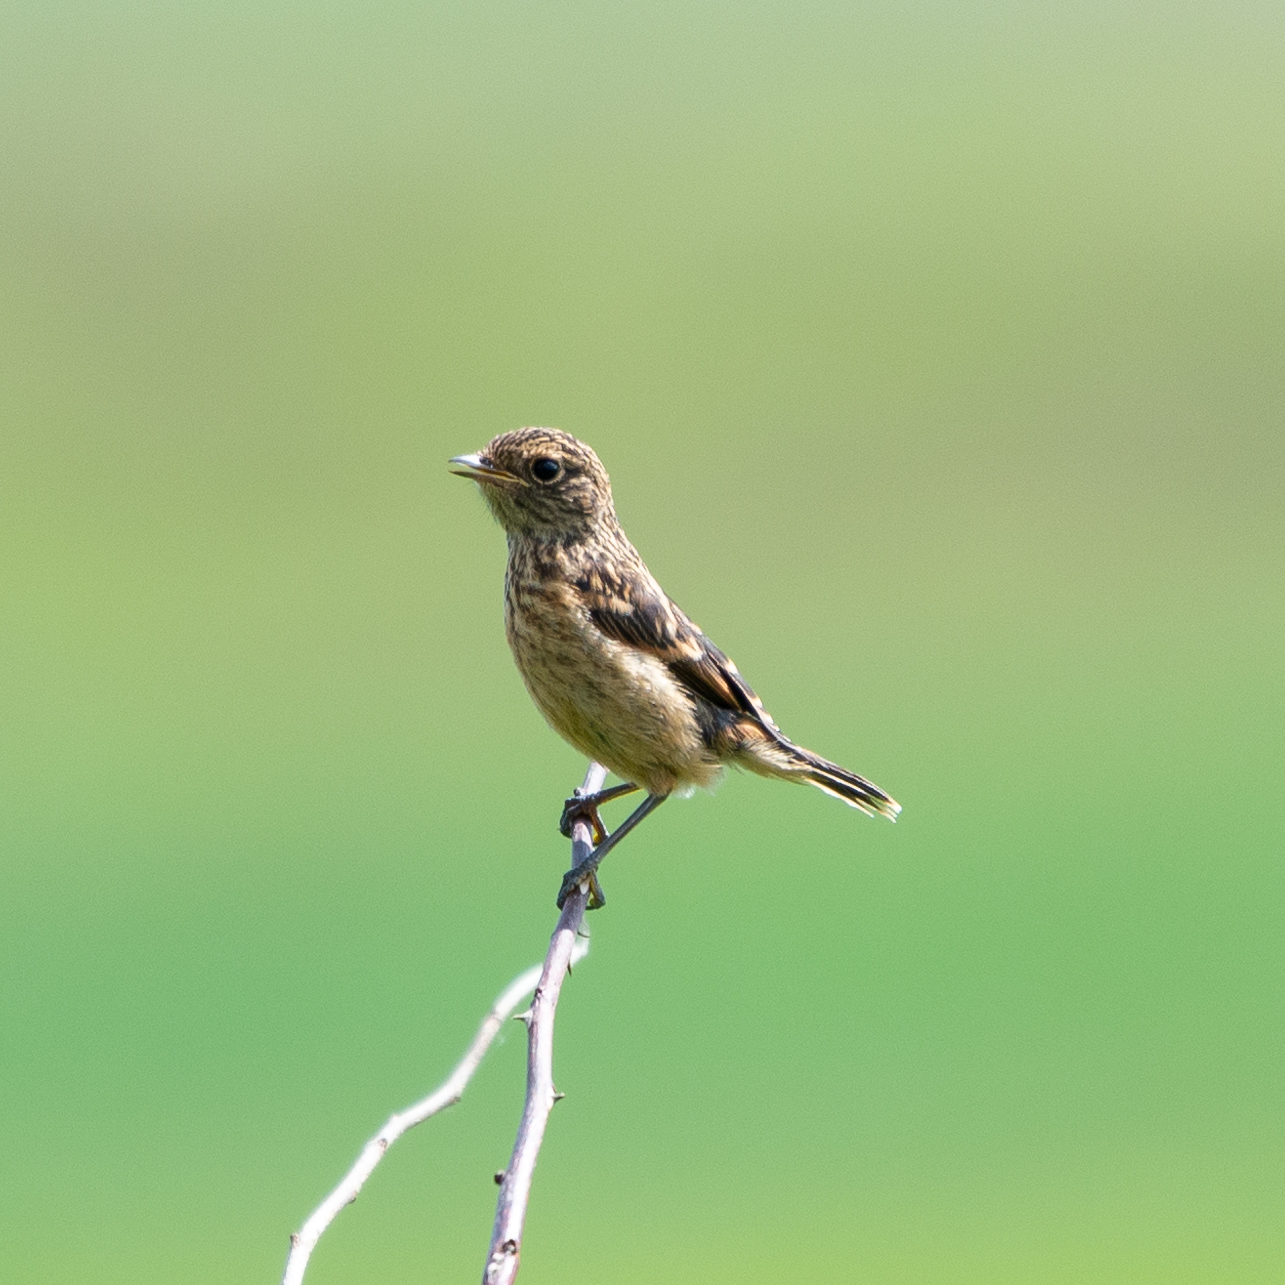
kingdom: Animalia
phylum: Chordata
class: Aves
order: Passeriformes
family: Muscicapidae
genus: Saxicola
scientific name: Saxicola rubicola
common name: European stonechat
